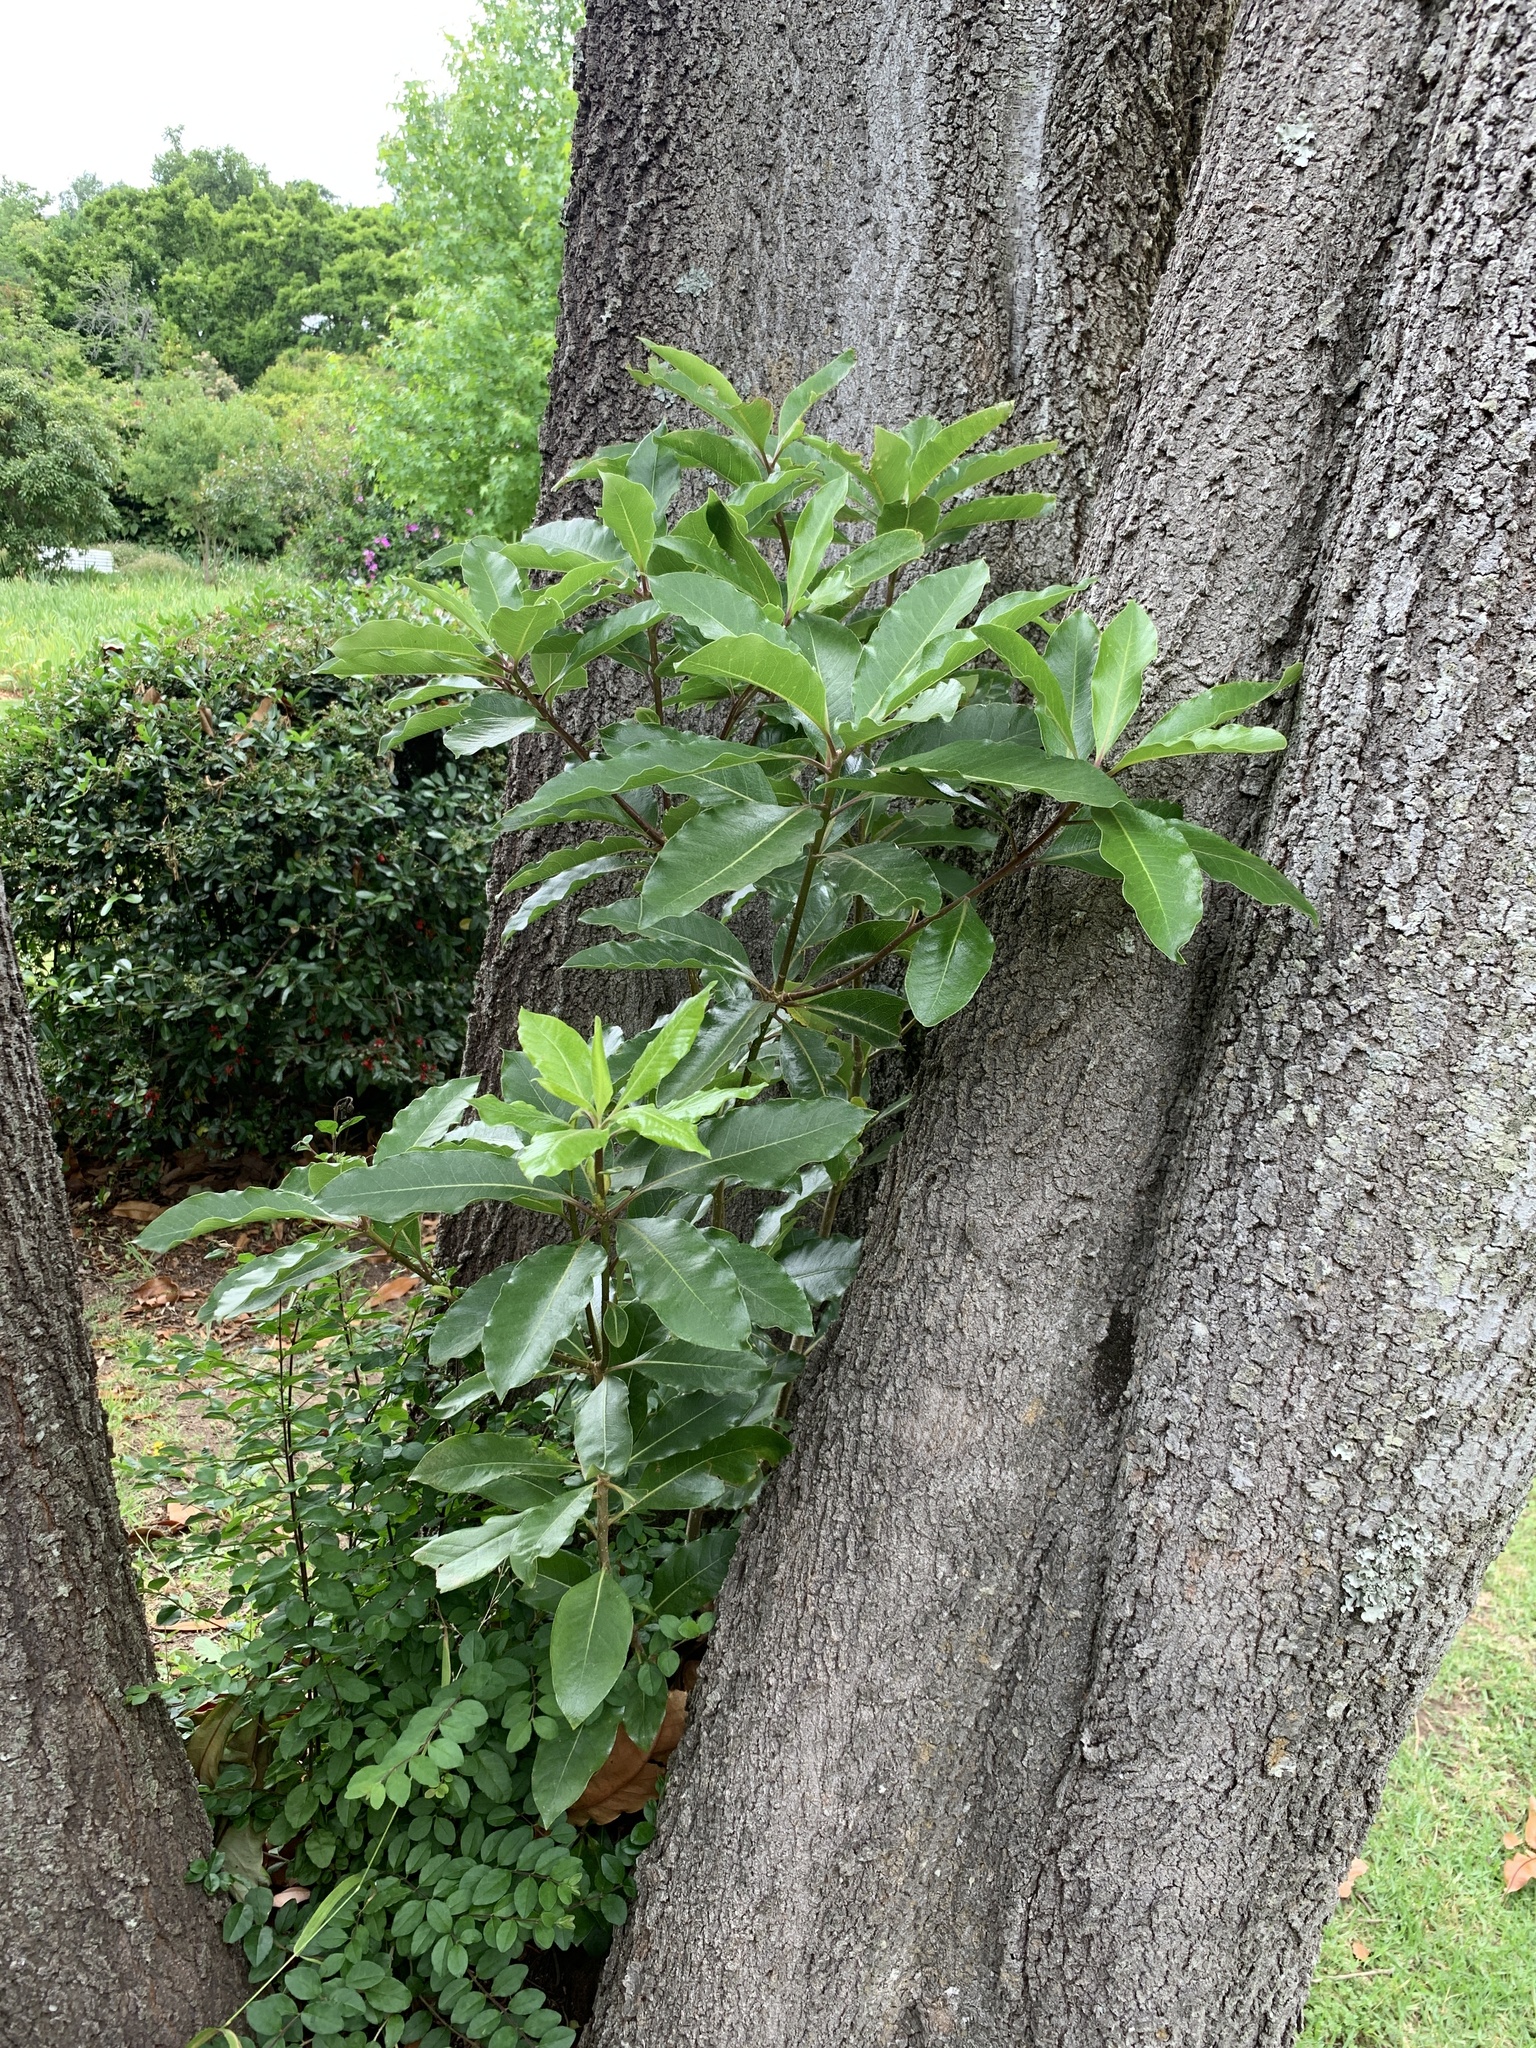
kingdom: Plantae
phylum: Tracheophyta
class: Magnoliopsida
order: Apiales
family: Pittosporaceae
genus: Pittosporum
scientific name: Pittosporum undulatum
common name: Australian cheesewood
